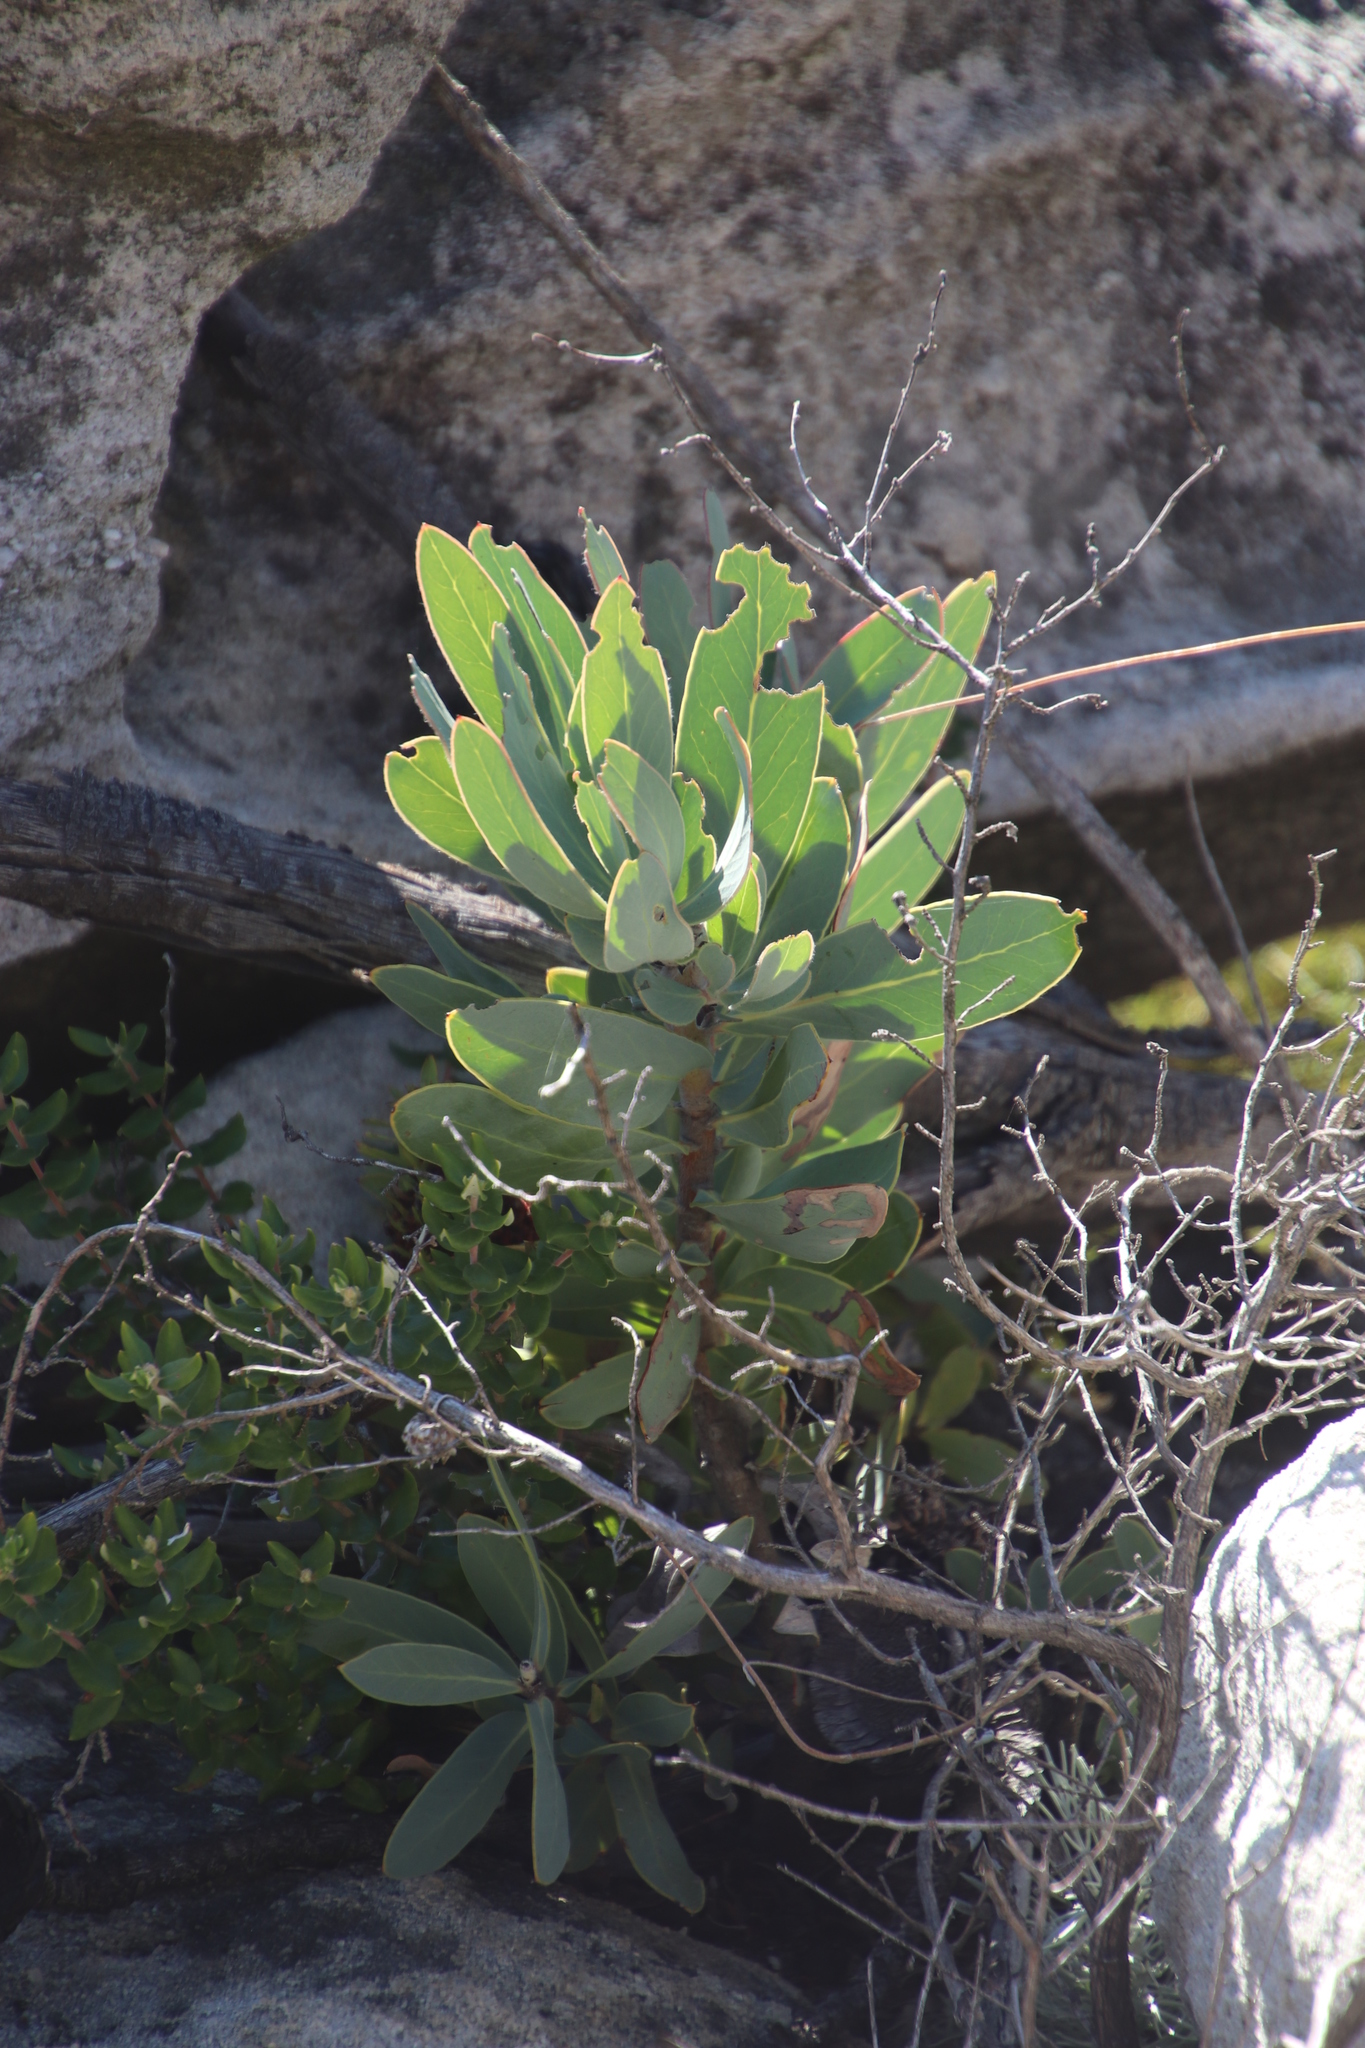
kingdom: Plantae
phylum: Tracheophyta
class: Magnoliopsida
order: Proteales
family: Proteaceae
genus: Protea
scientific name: Protea nitida
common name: Tree protea
